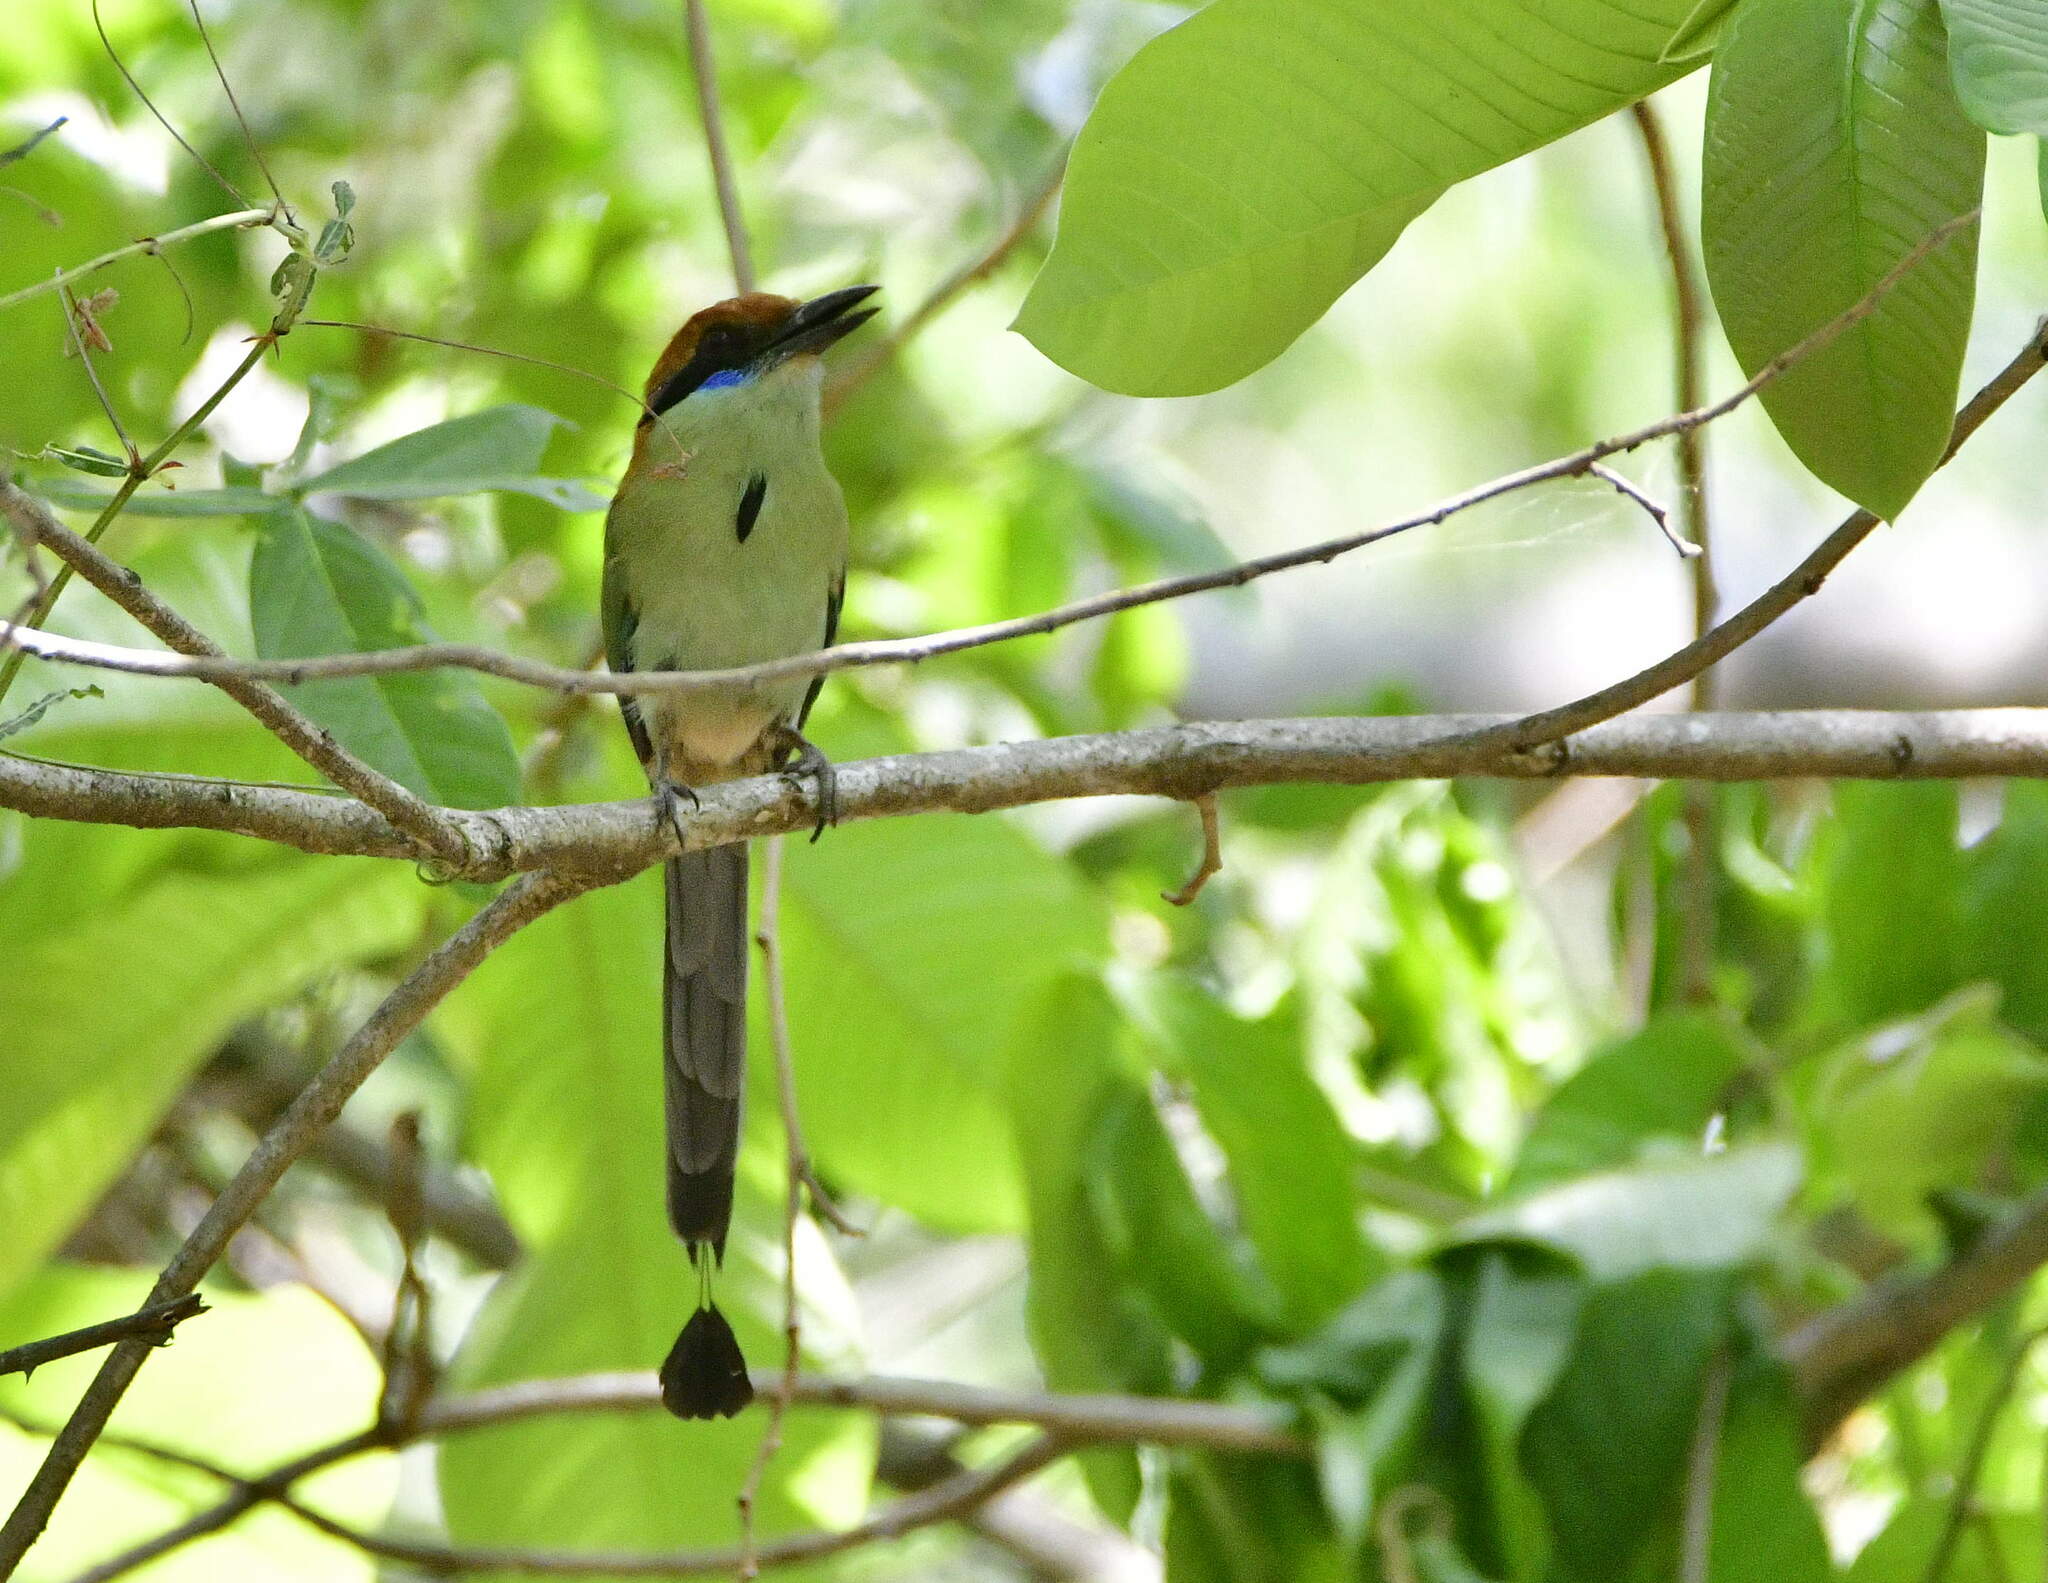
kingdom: Animalia
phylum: Chordata
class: Aves
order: Coraciiformes
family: Momotidae
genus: Momotus
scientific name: Momotus mexicanus
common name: Russet-crowned motmot
